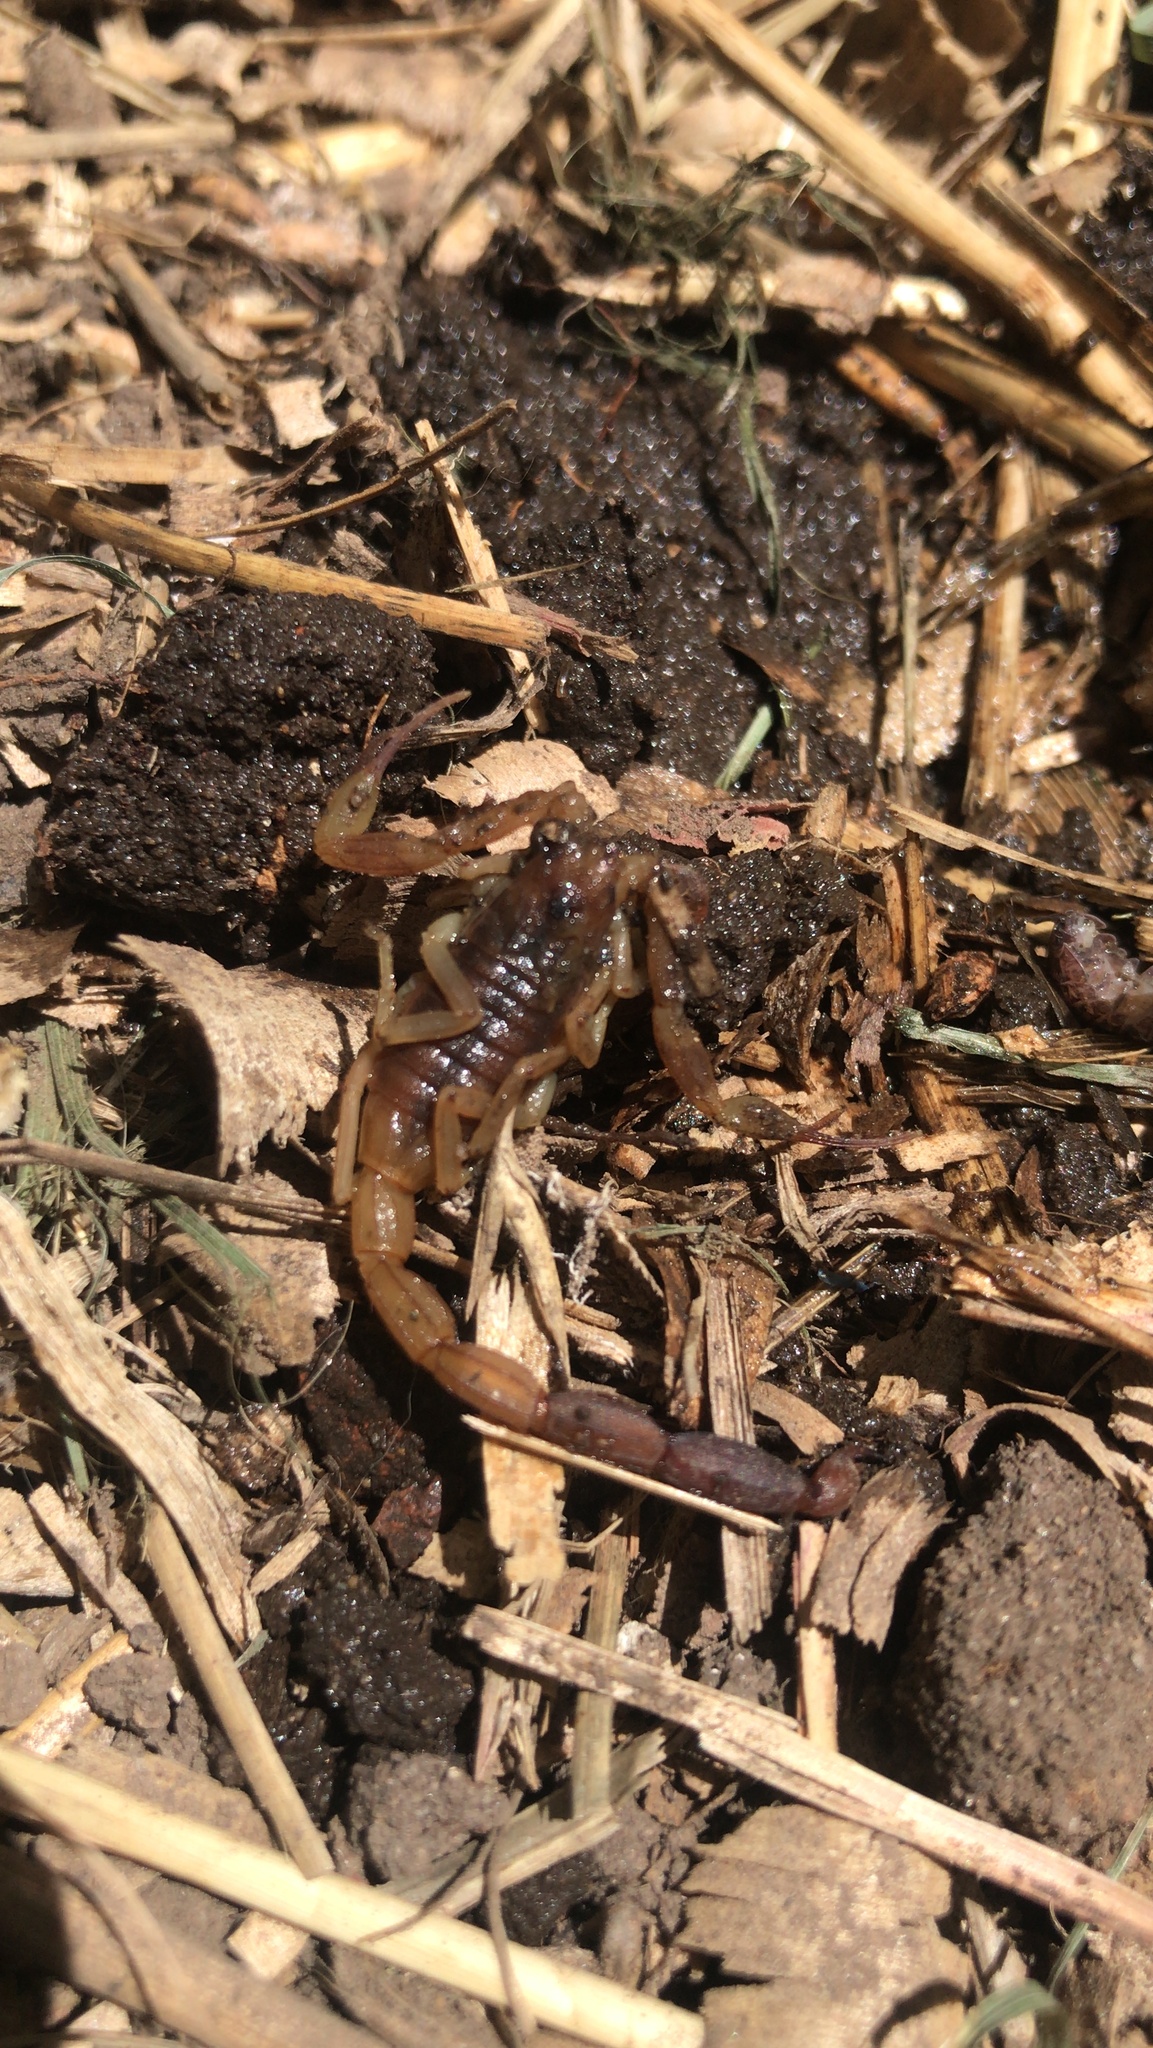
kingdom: Animalia
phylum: Arthropoda
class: Arachnida
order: Scorpiones
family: Buthidae
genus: Tityus
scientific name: Tityus carrilloi
